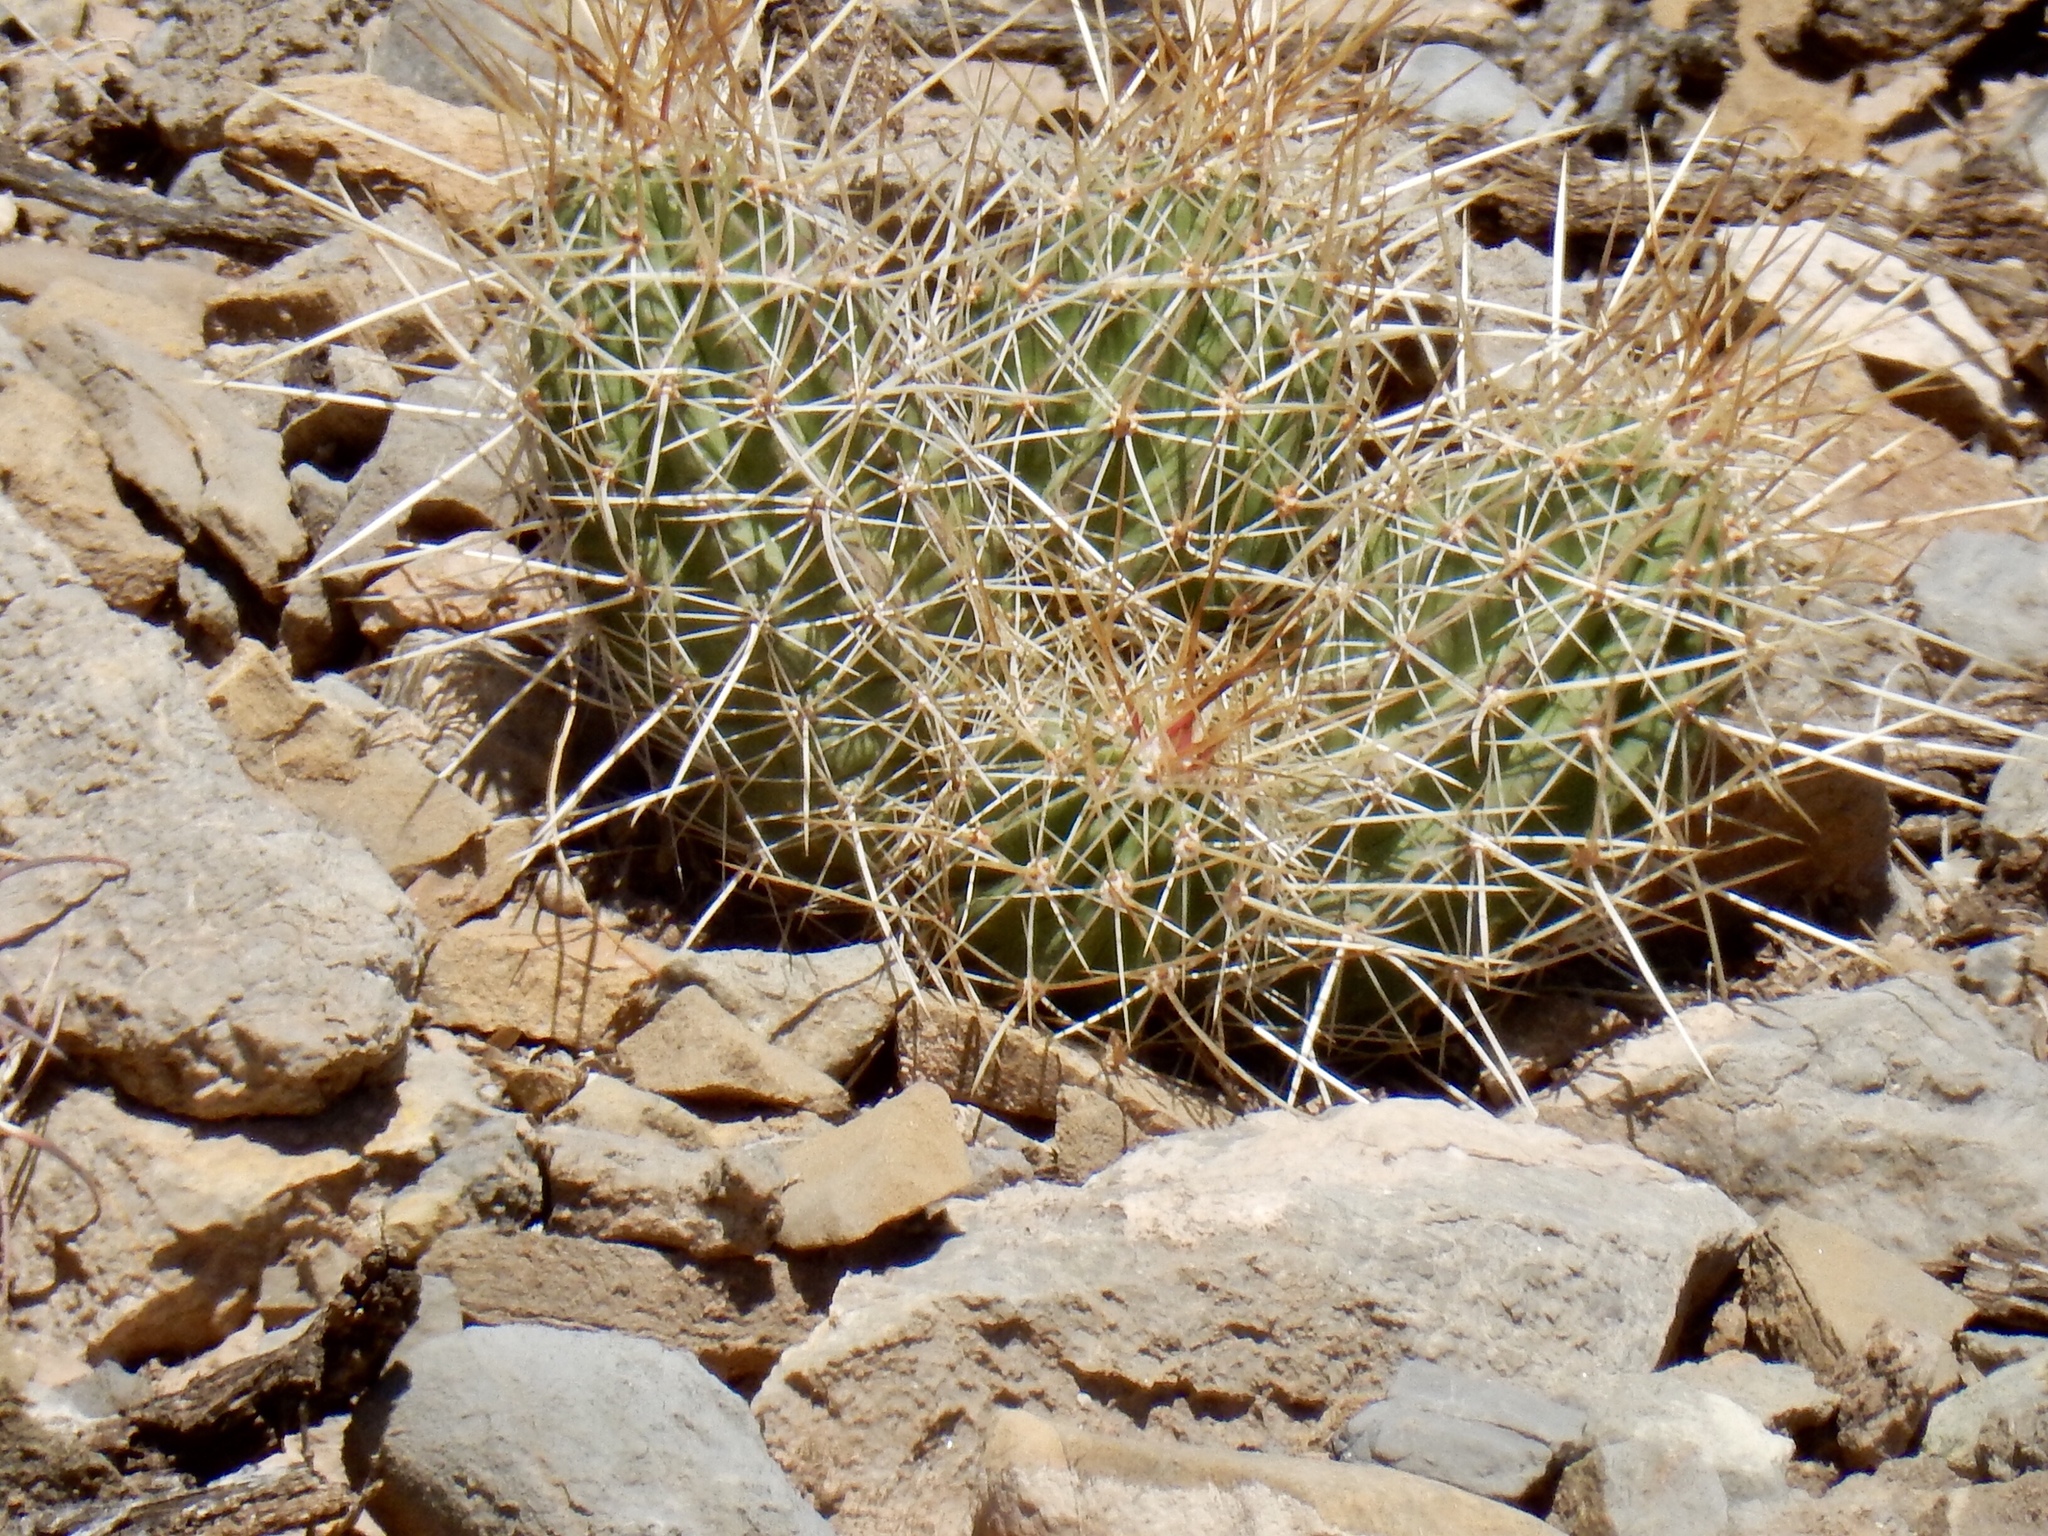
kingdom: Plantae
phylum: Tracheophyta
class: Magnoliopsida
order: Caryophyllales
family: Cactaceae
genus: Echinocereus
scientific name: Echinocereus stramineus
